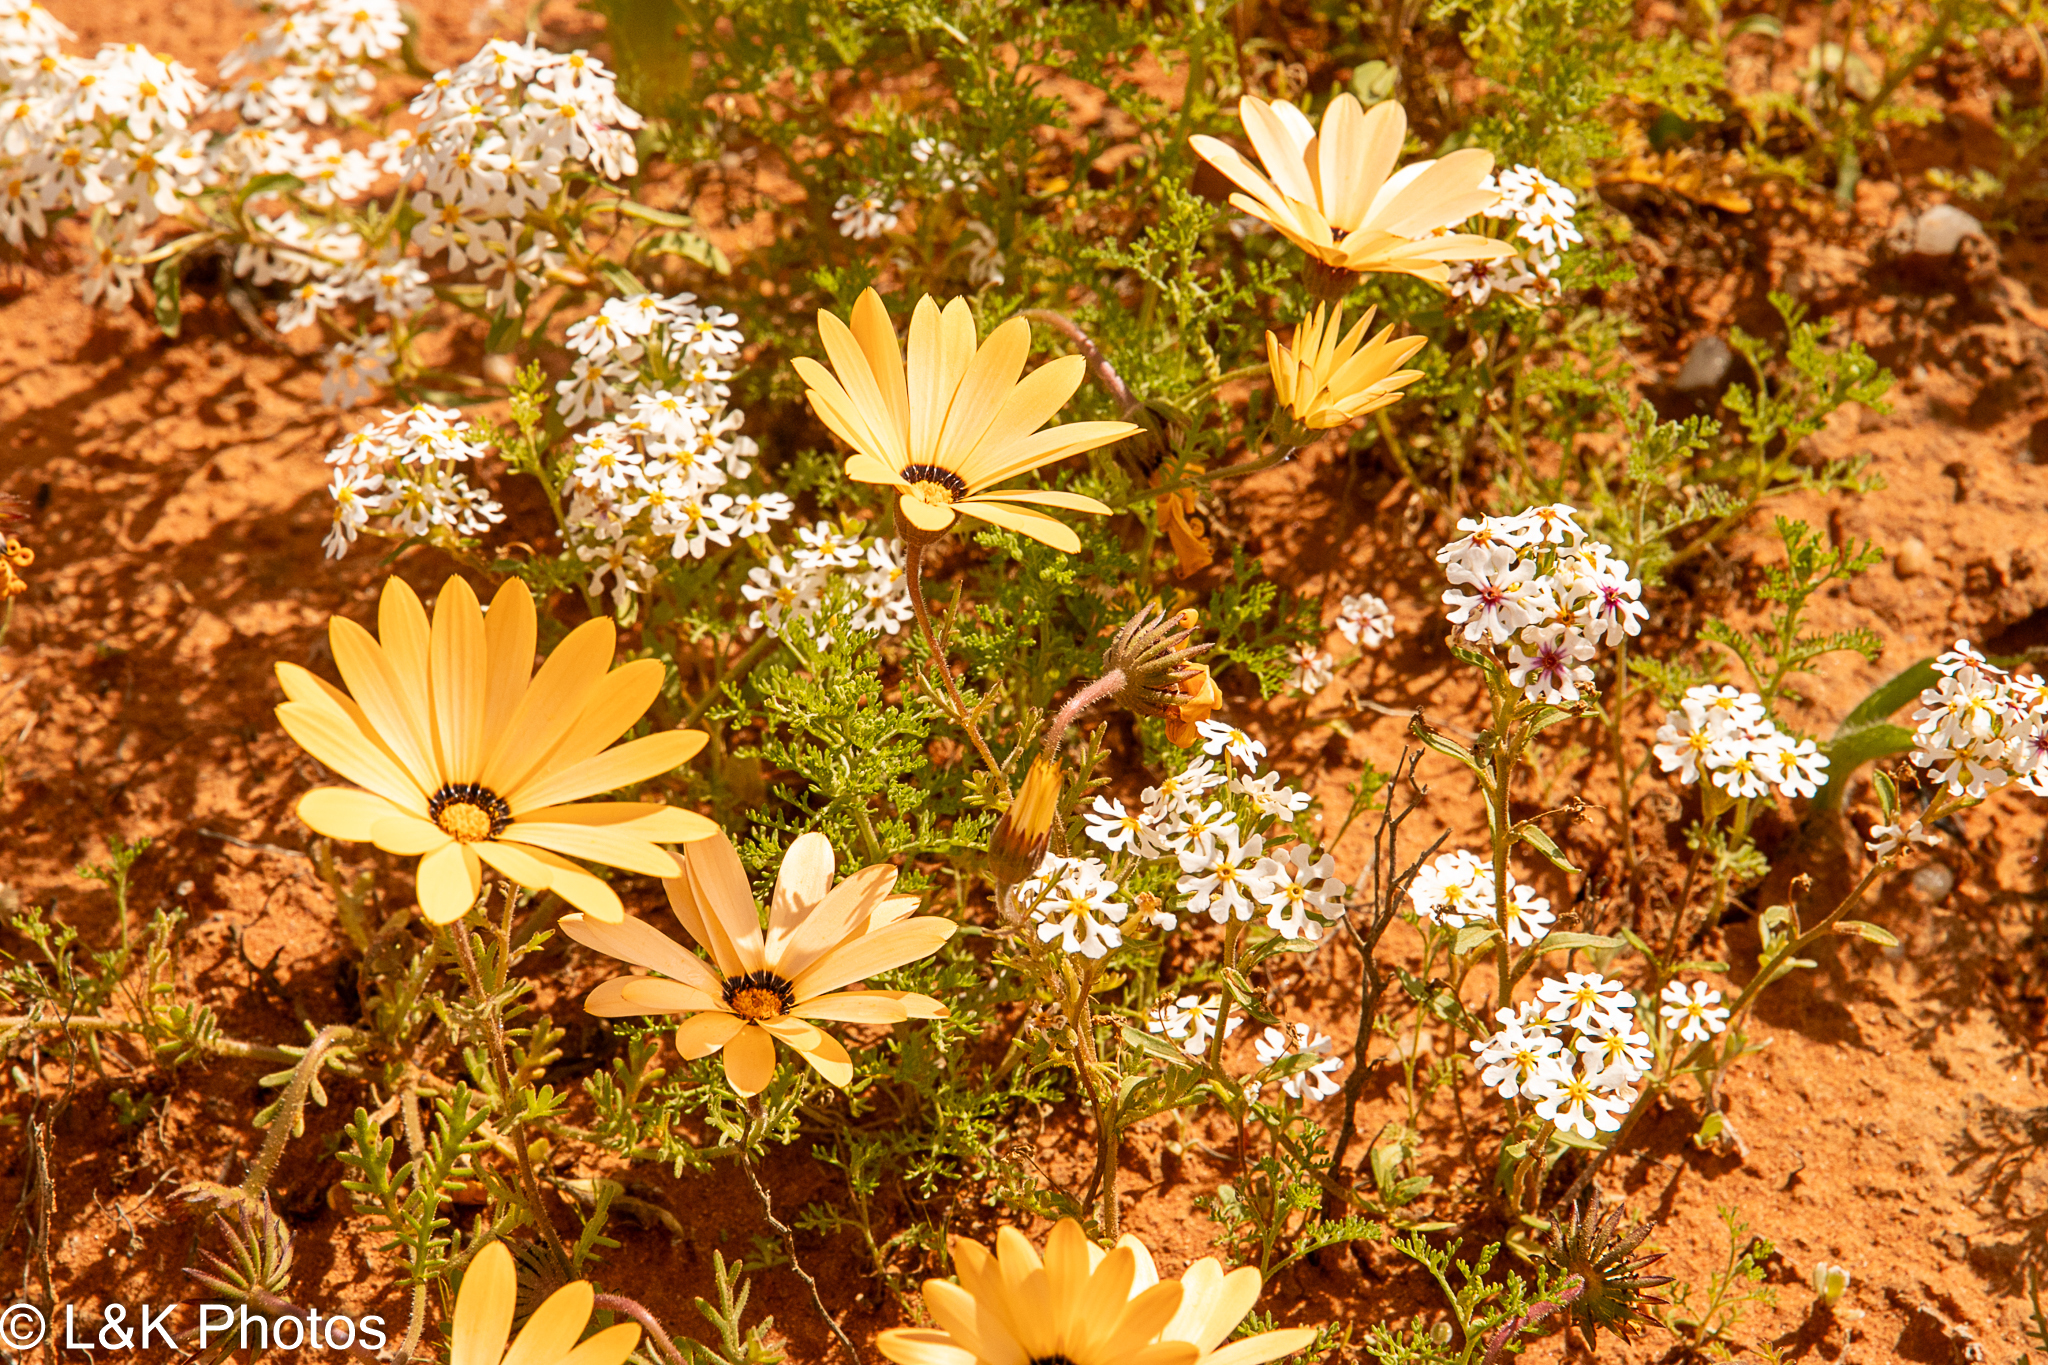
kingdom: Plantae
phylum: Tracheophyta
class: Magnoliopsida
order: Asterales
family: Asteraceae
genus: Dimorphotheca
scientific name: Dimorphotheca pinnata
